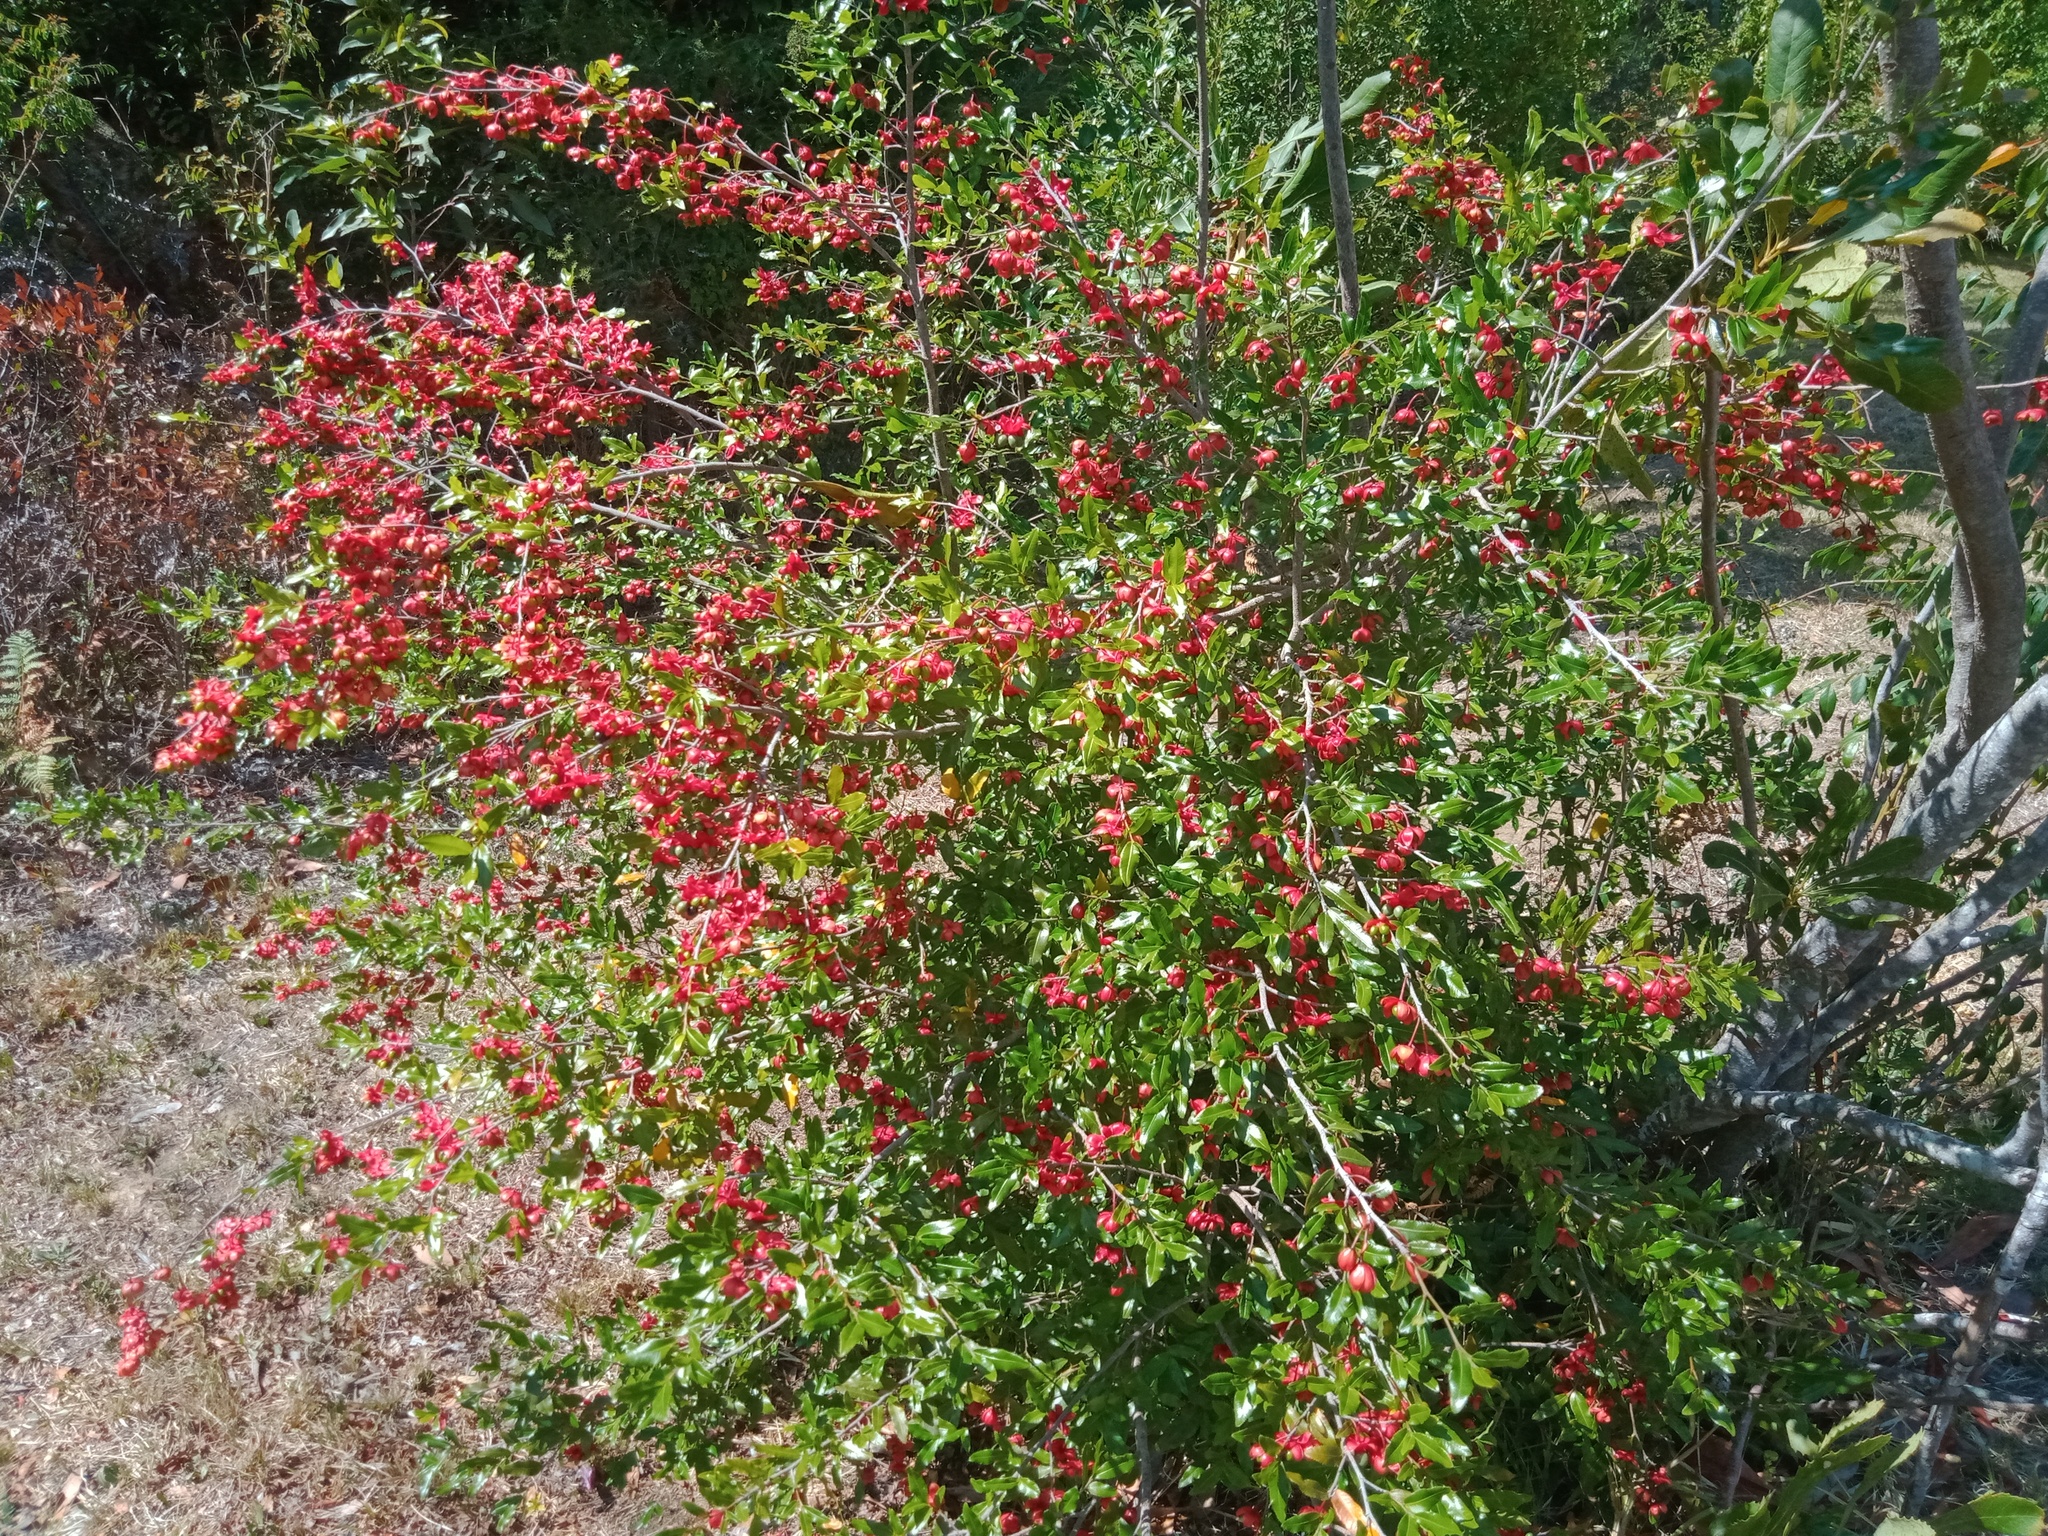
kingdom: Plantae
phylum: Tracheophyta
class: Magnoliopsida
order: Malpighiales
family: Ochnaceae
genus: Ochna
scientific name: Ochna serrulata
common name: Mickey mouse plant
